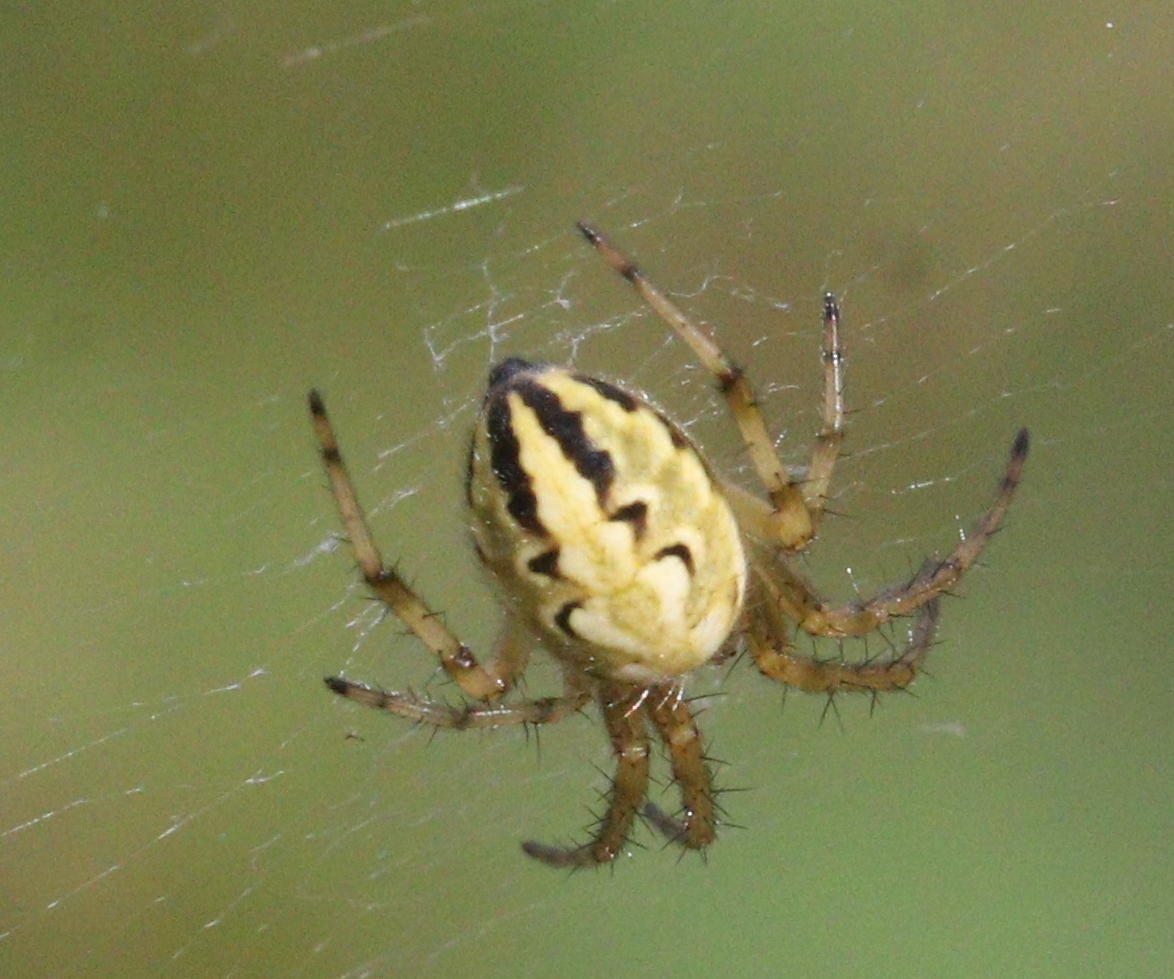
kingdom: Animalia
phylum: Arthropoda
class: Arachnida
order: Araneae
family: Araneidae
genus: Neoscona
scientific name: Neoscona adianta
